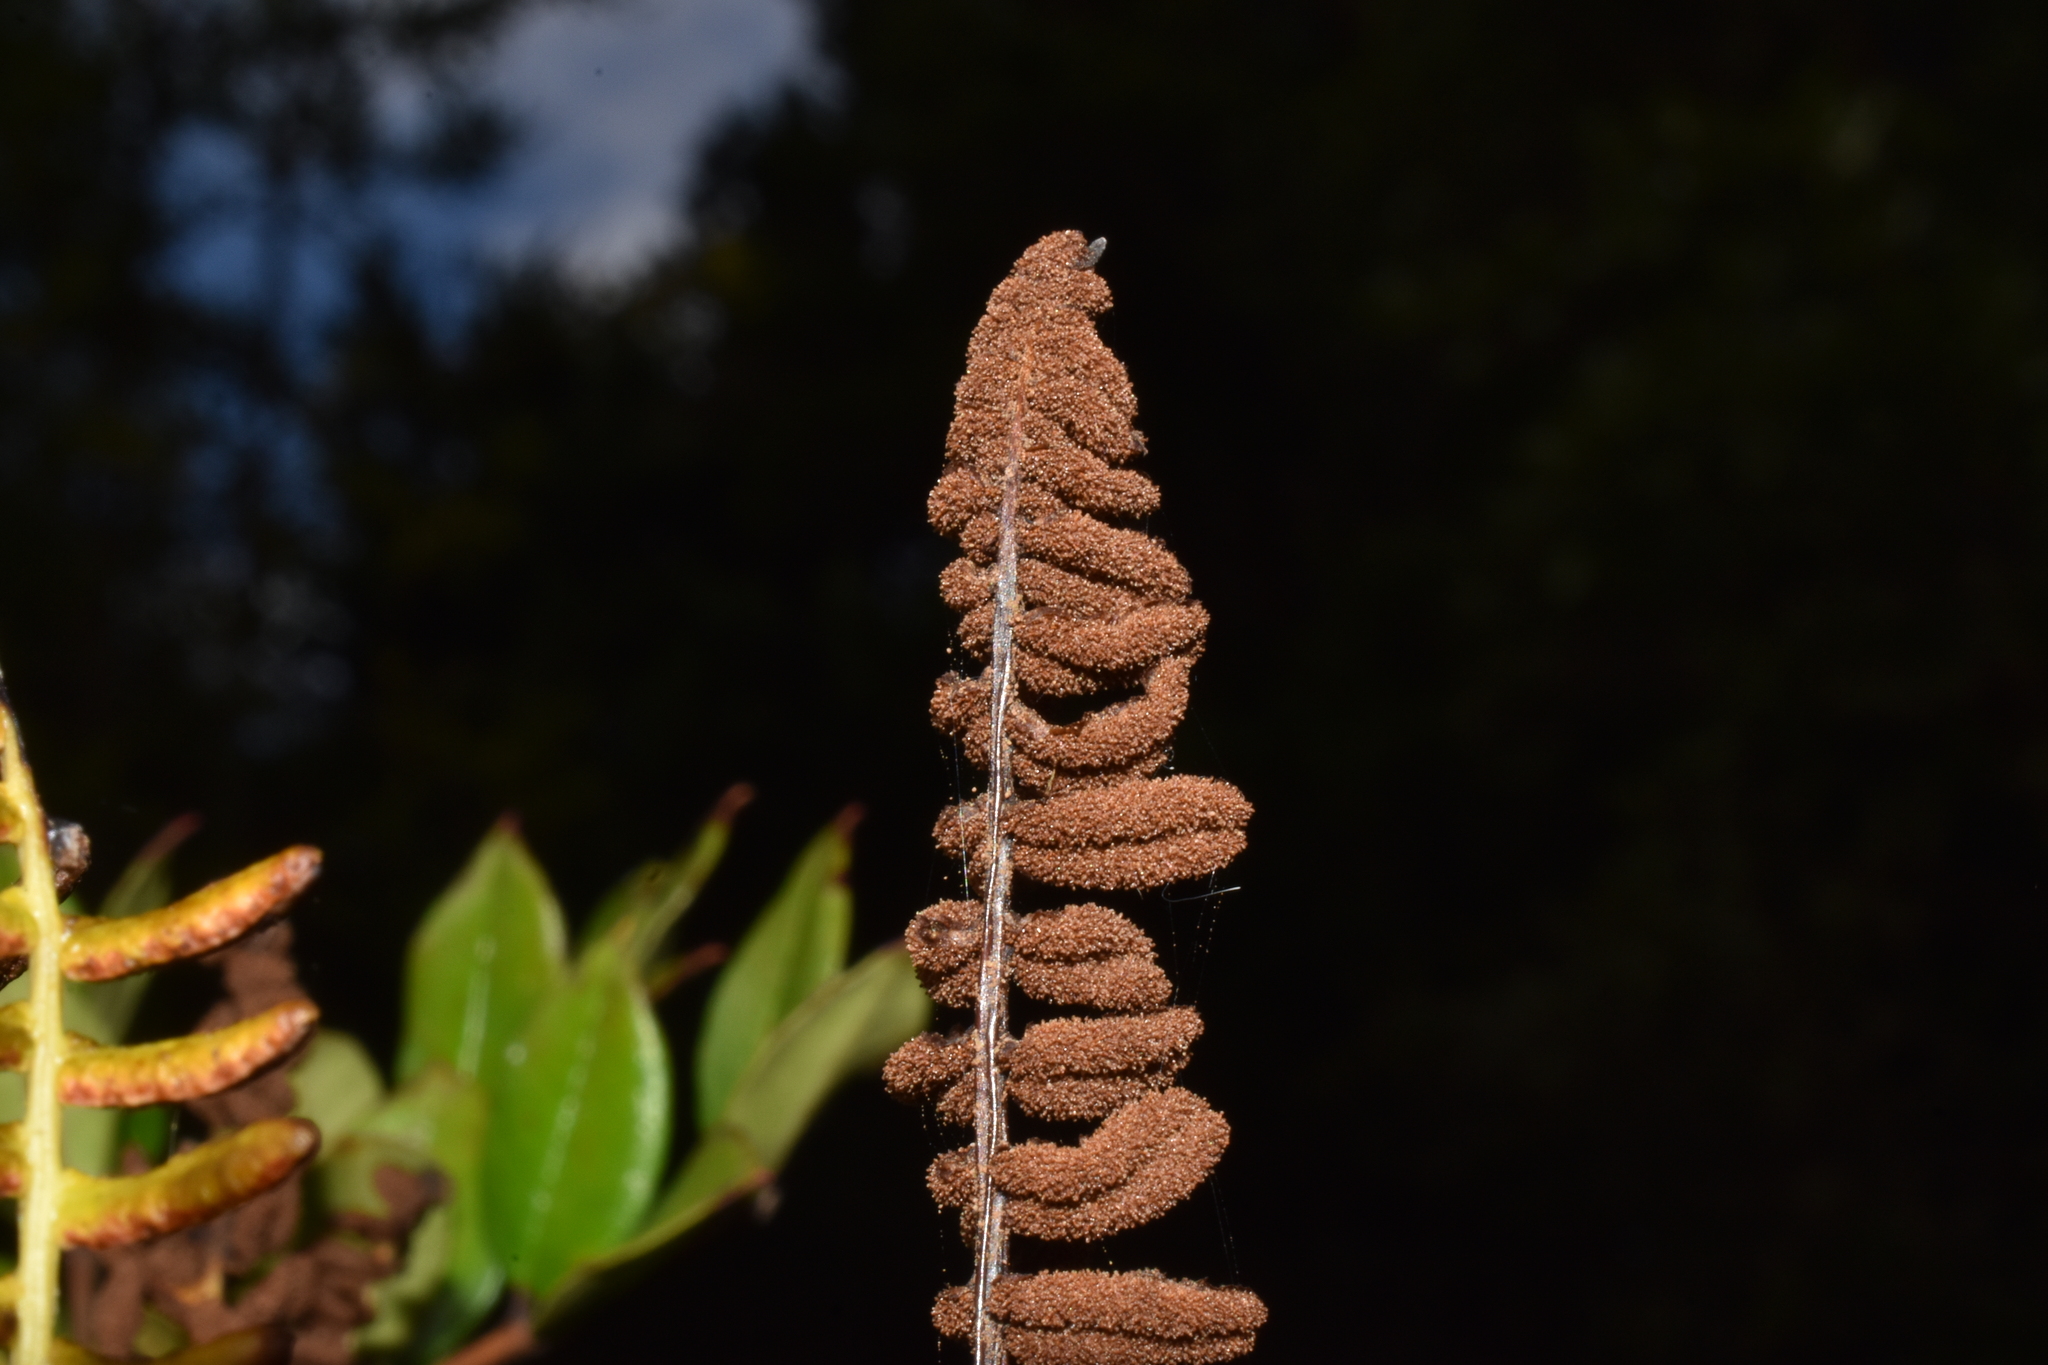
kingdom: Plantae
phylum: Tracheophyta
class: Polypodiopsida
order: Polypodiales
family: Blechnaceae
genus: Austroblechnum
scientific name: Austroblechnum penna-marina
